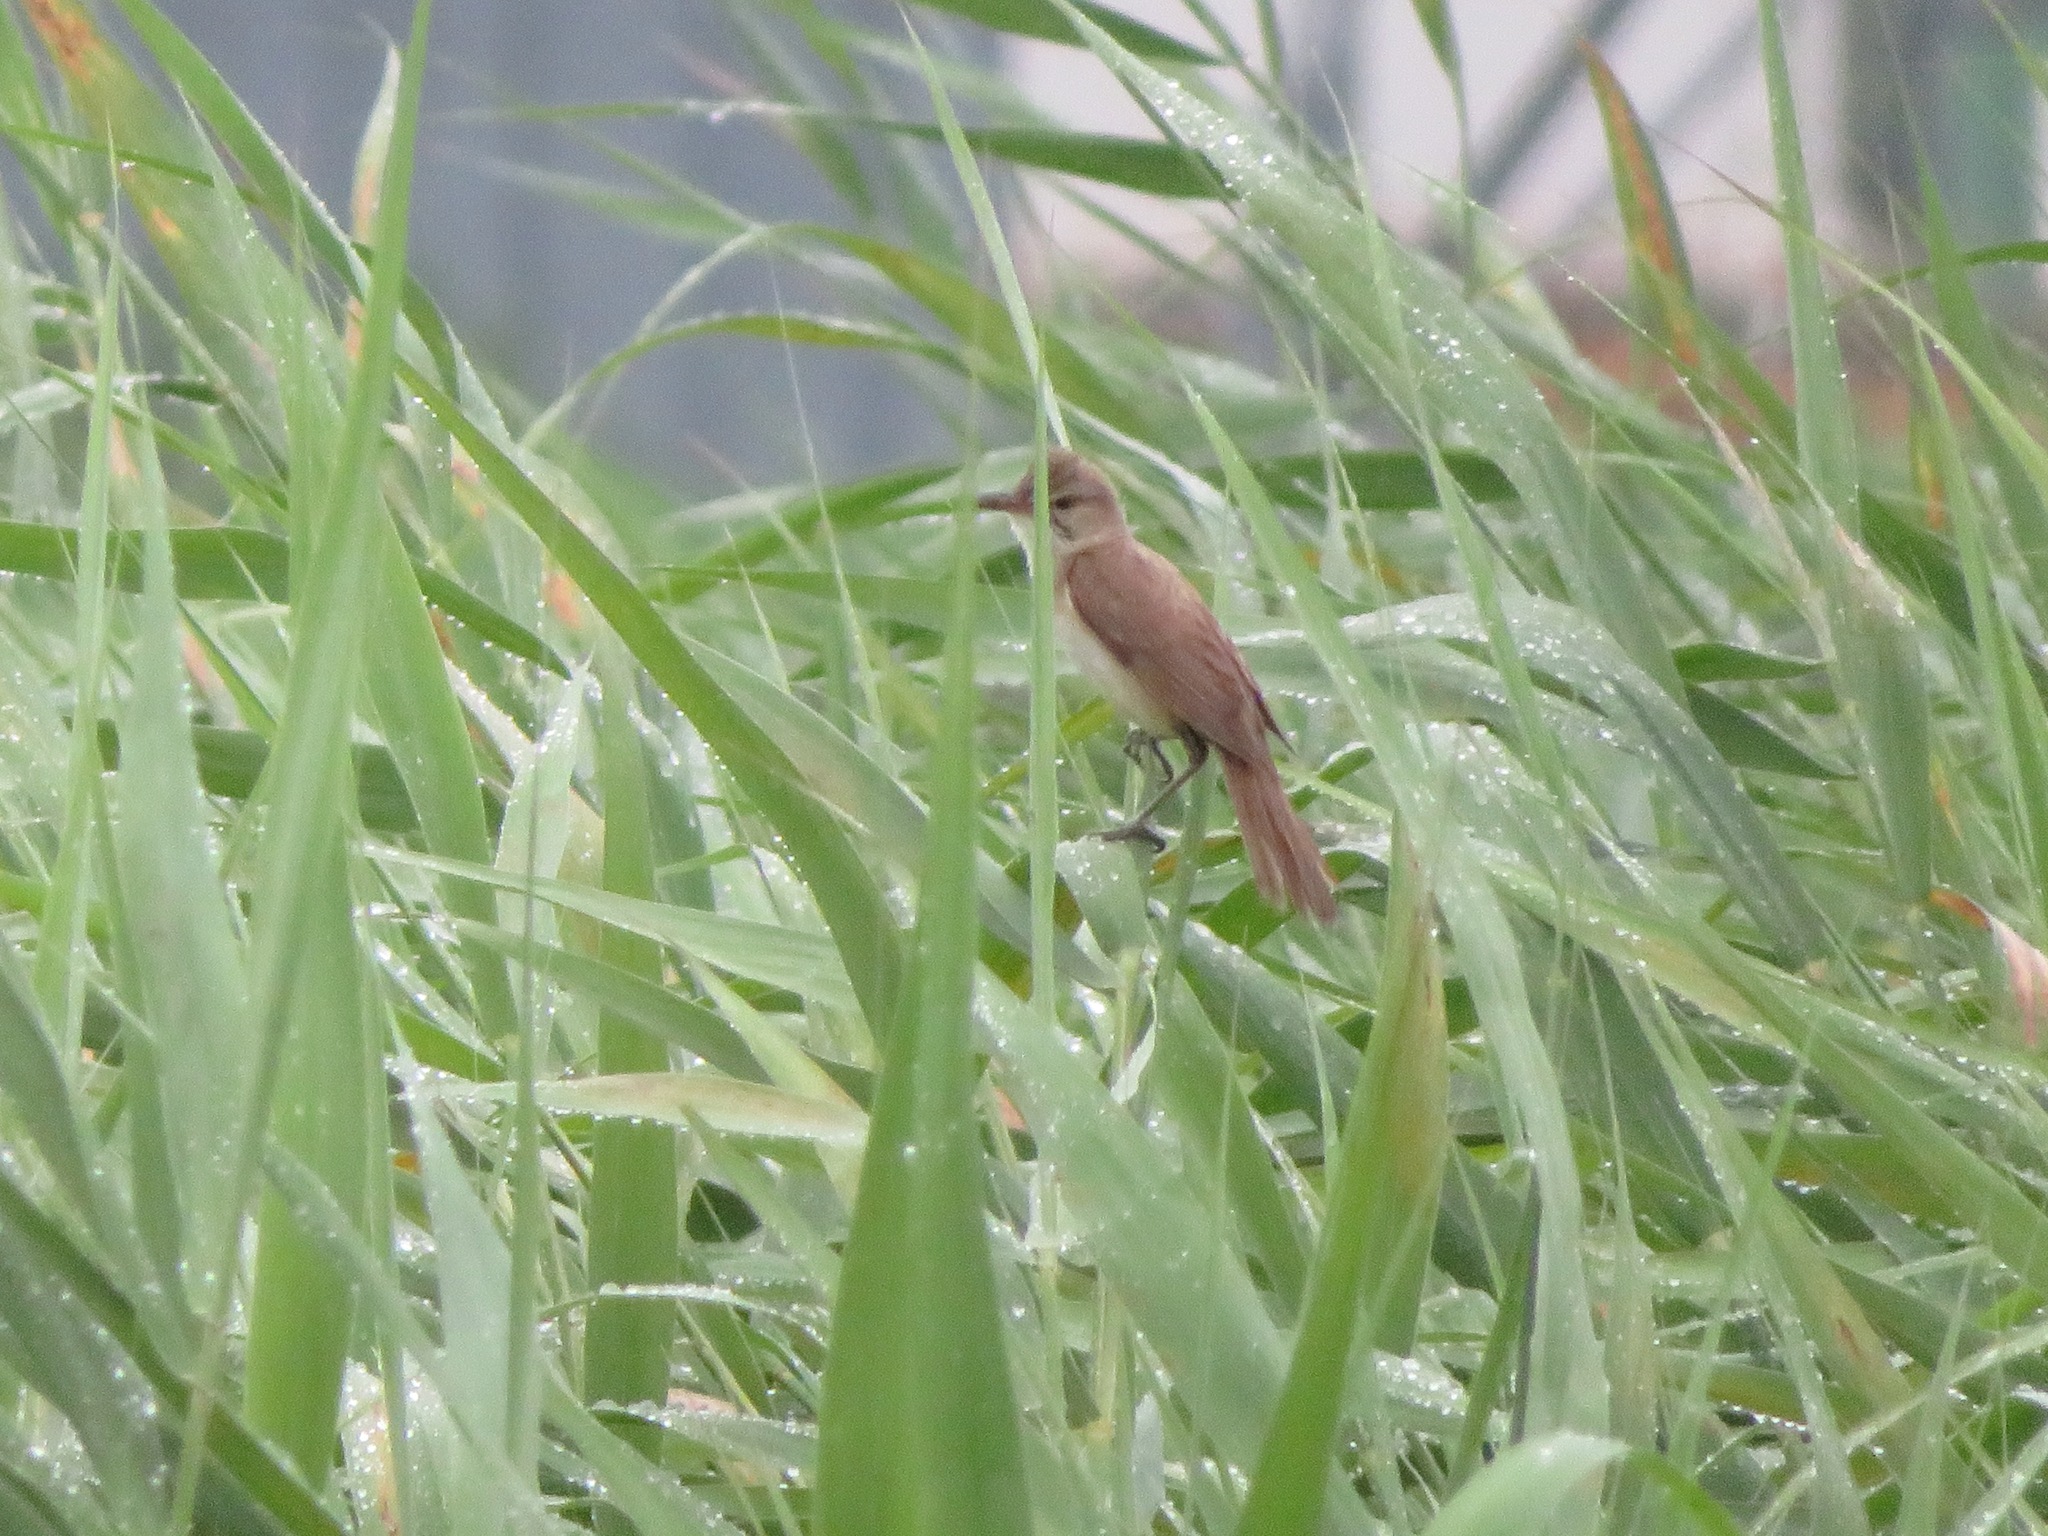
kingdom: Animalia
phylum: Chordata
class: Aves
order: Passeriformes
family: Acrocephalidae
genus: Acrocephalus
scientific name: Acrocephalus orientalis
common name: Oriental reed warbler
